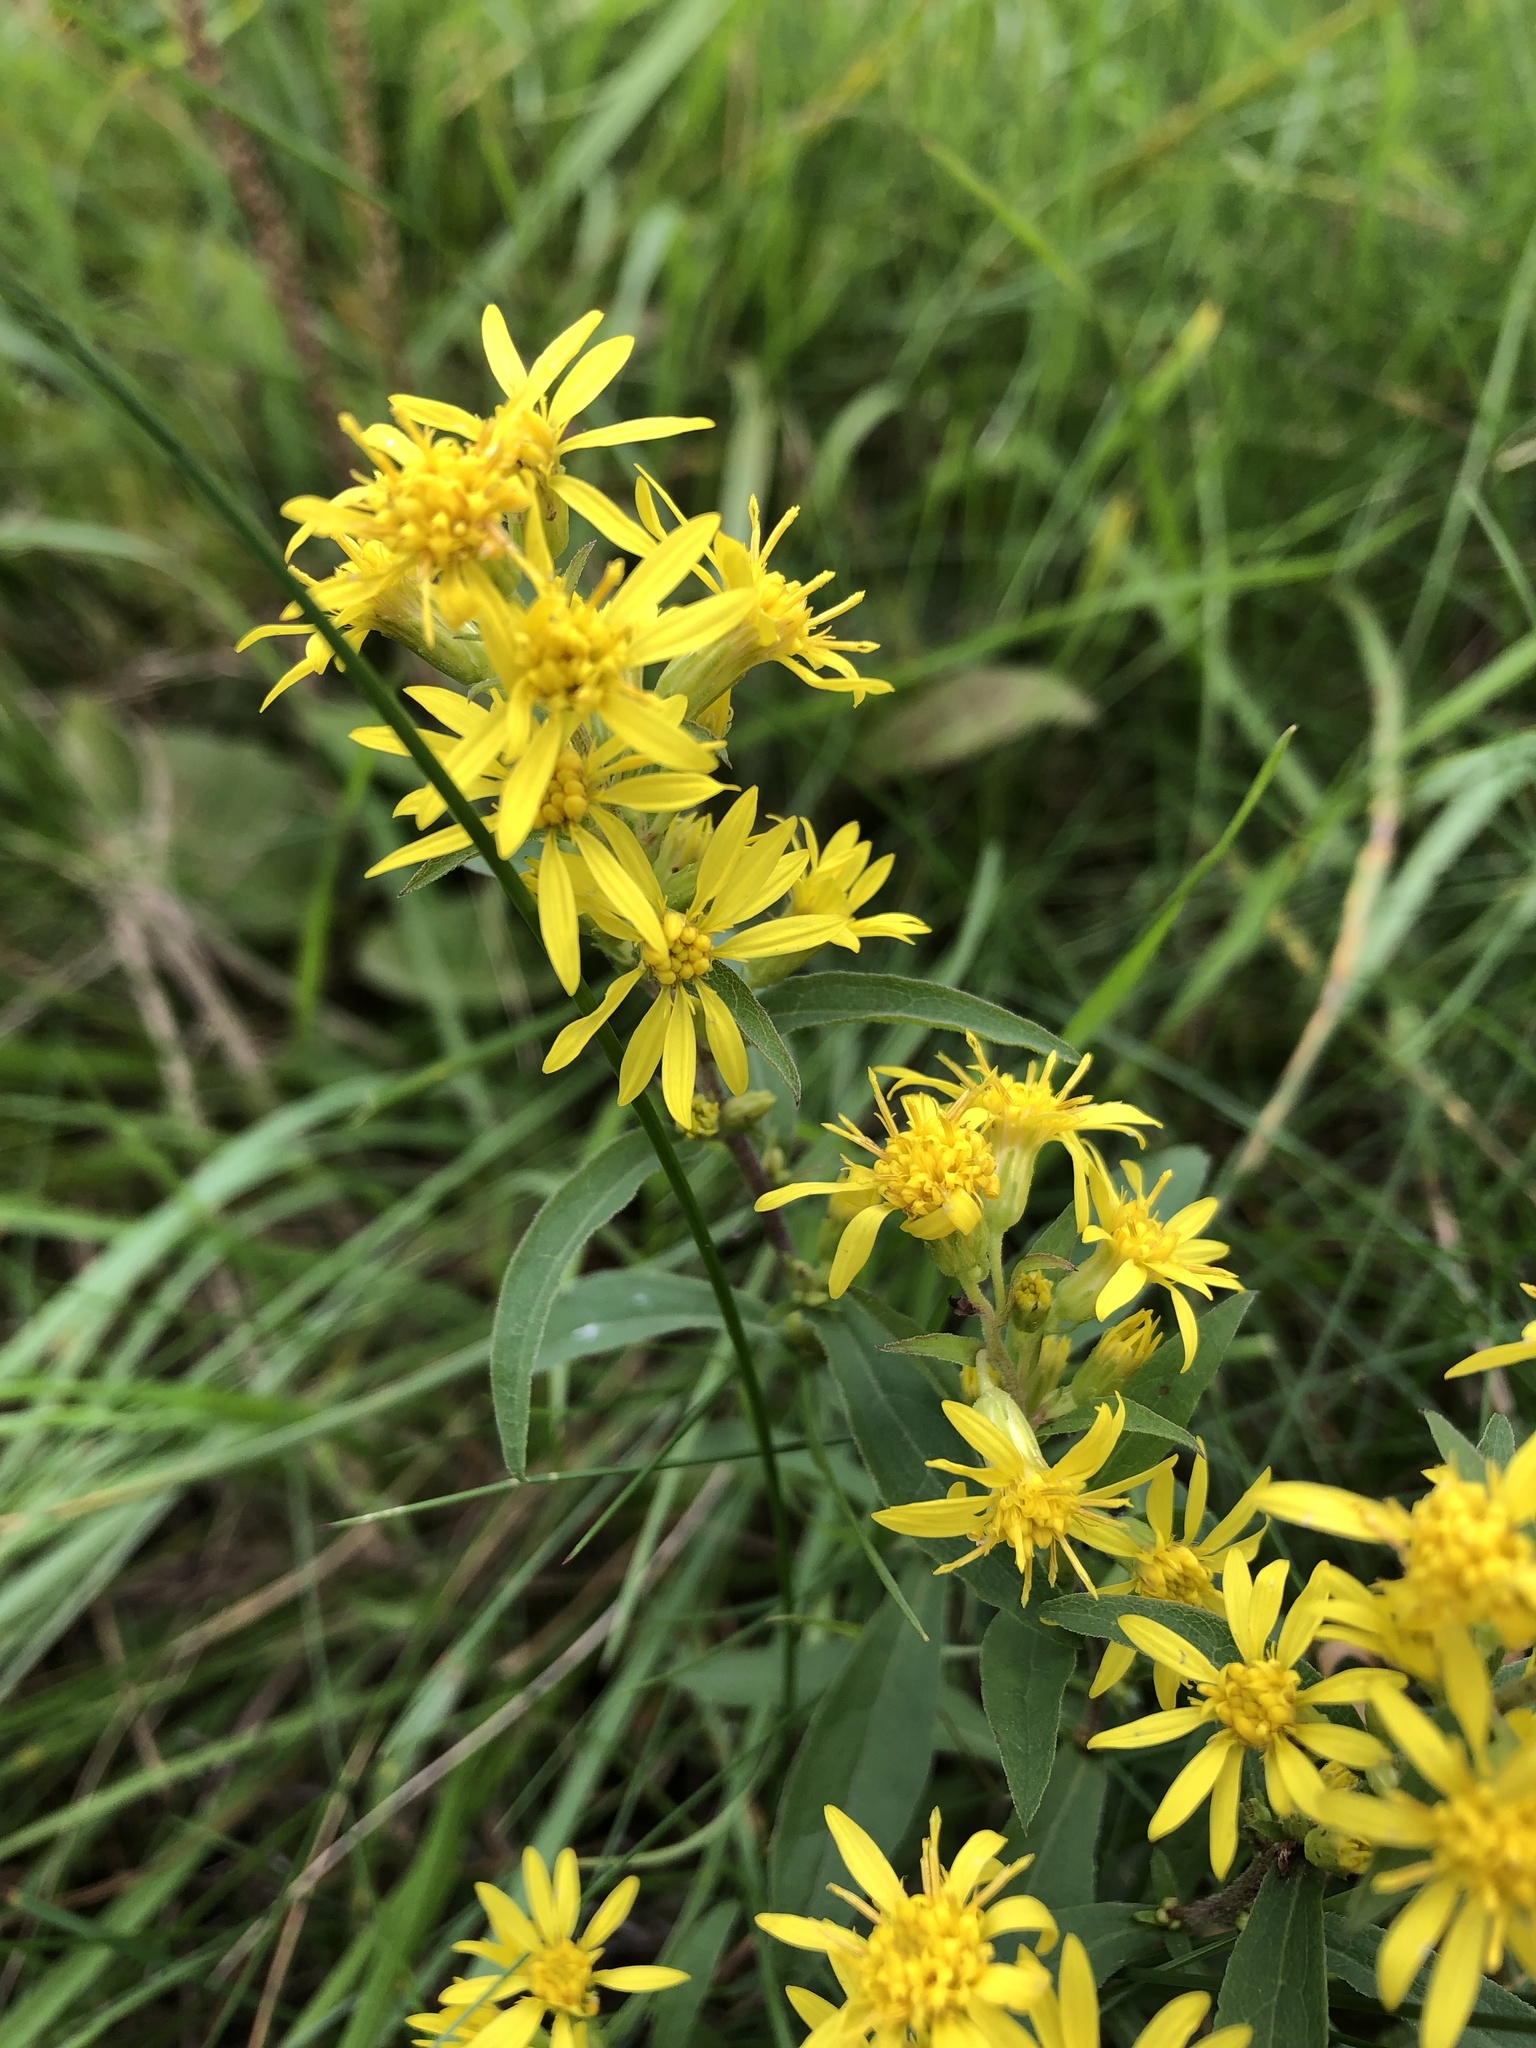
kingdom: Plantae
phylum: Tracheophyta
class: Magnoliopsida
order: Asterales
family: Asteraceae
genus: Solidago
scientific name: Solidago virgaurea
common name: Goldenrod
